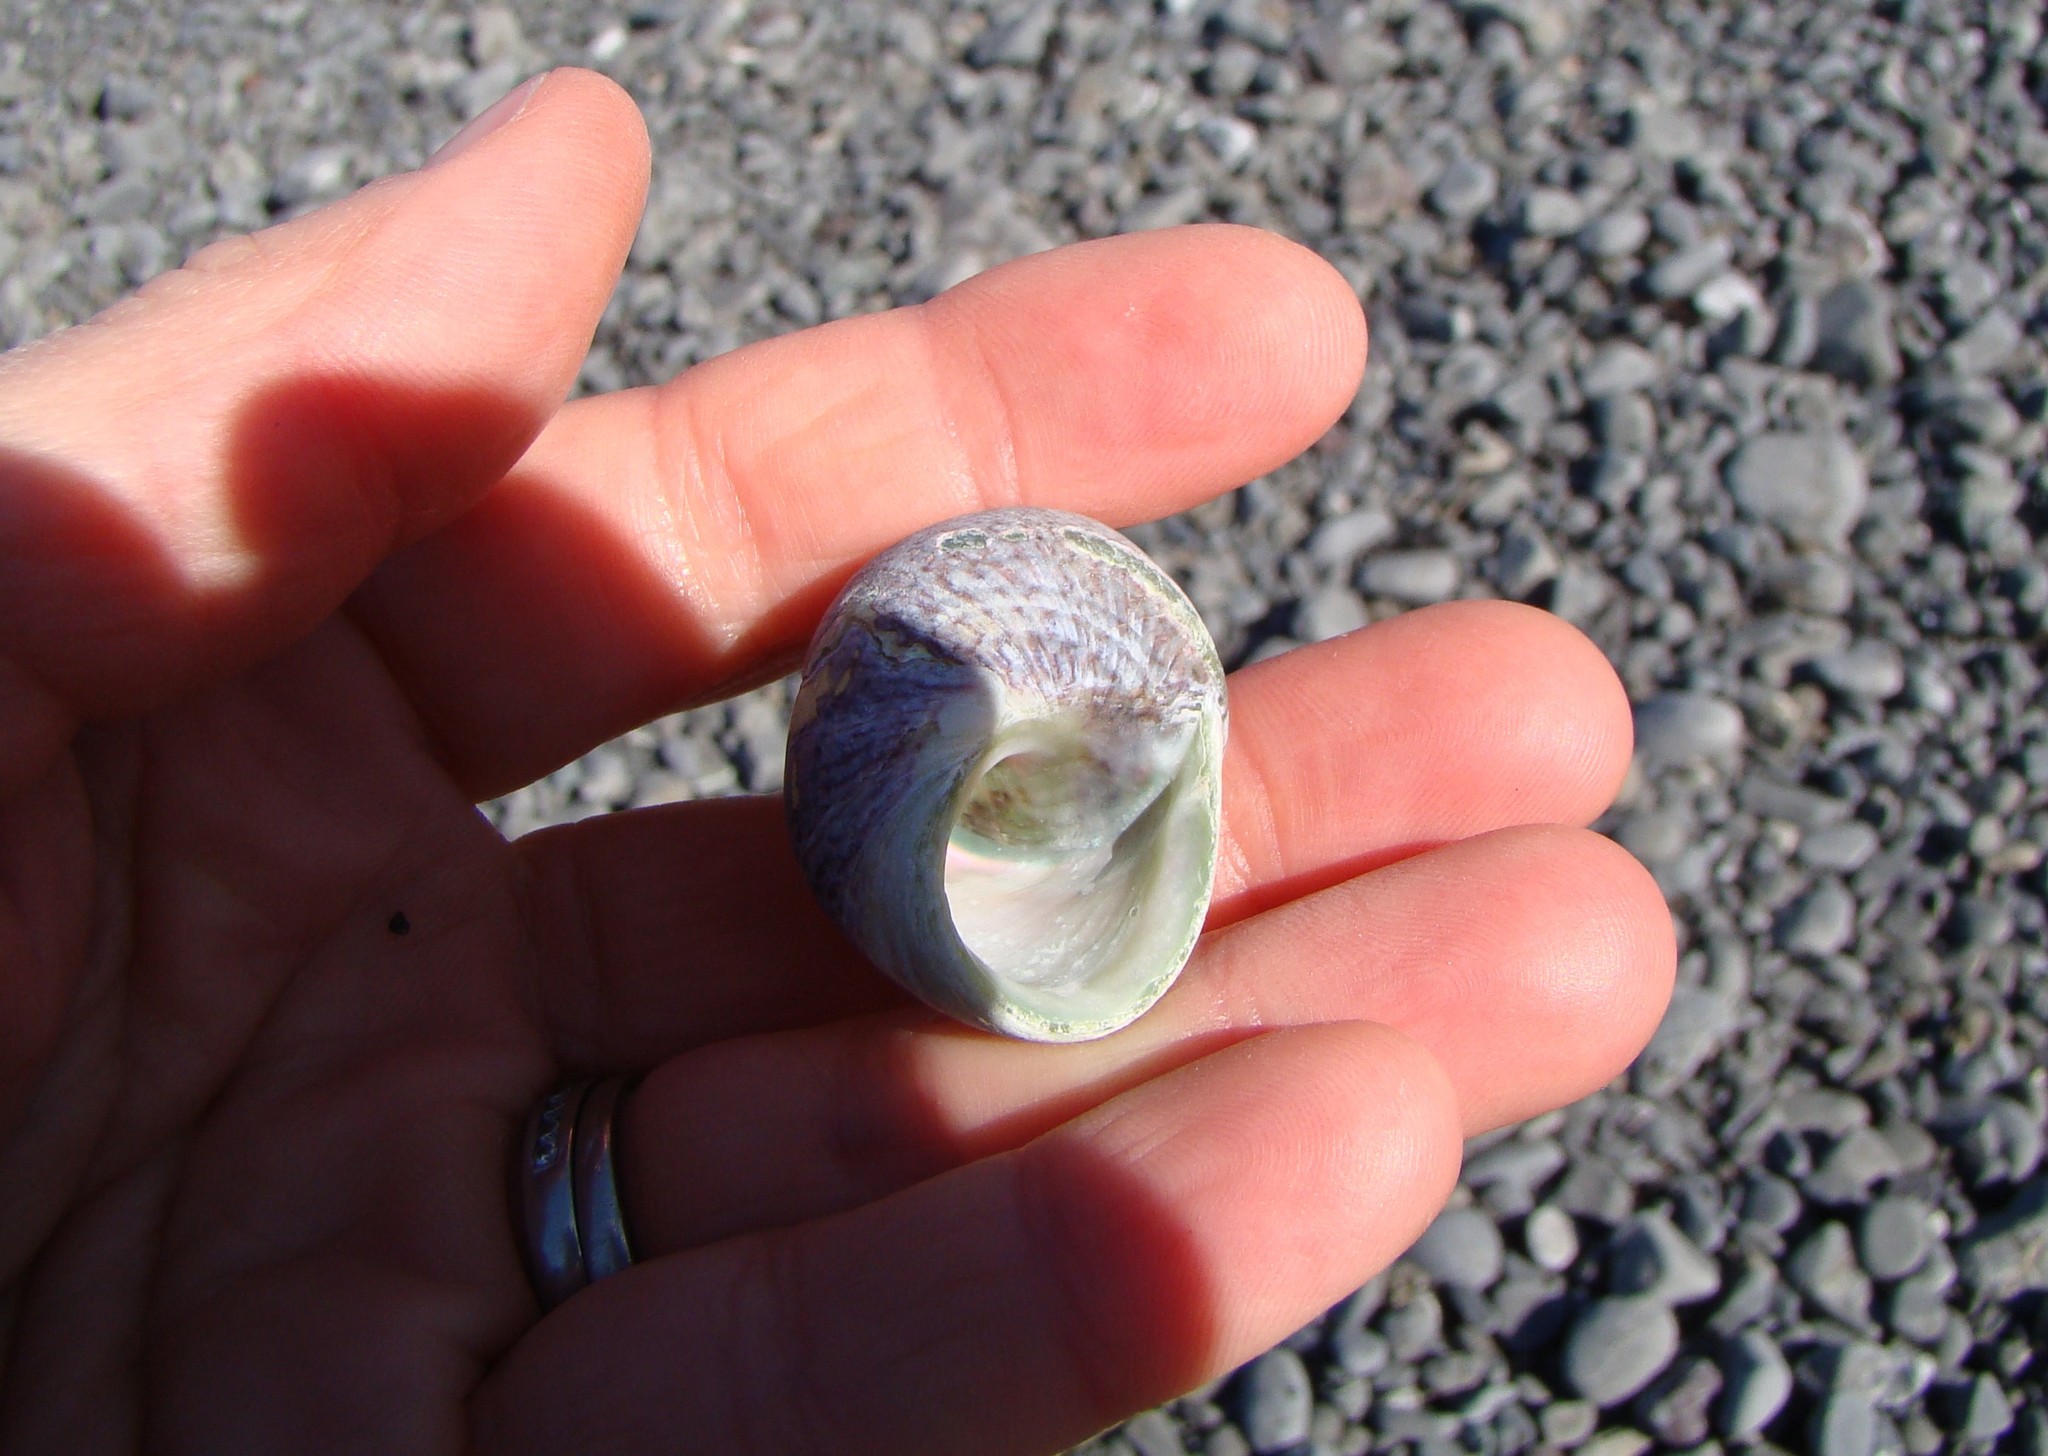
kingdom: Animalia
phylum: Mollusca
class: Gastropoda
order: Trochida
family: Trochidae
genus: Cantharidus
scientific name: Cantharidus opalus
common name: Opal jewel topsnail
